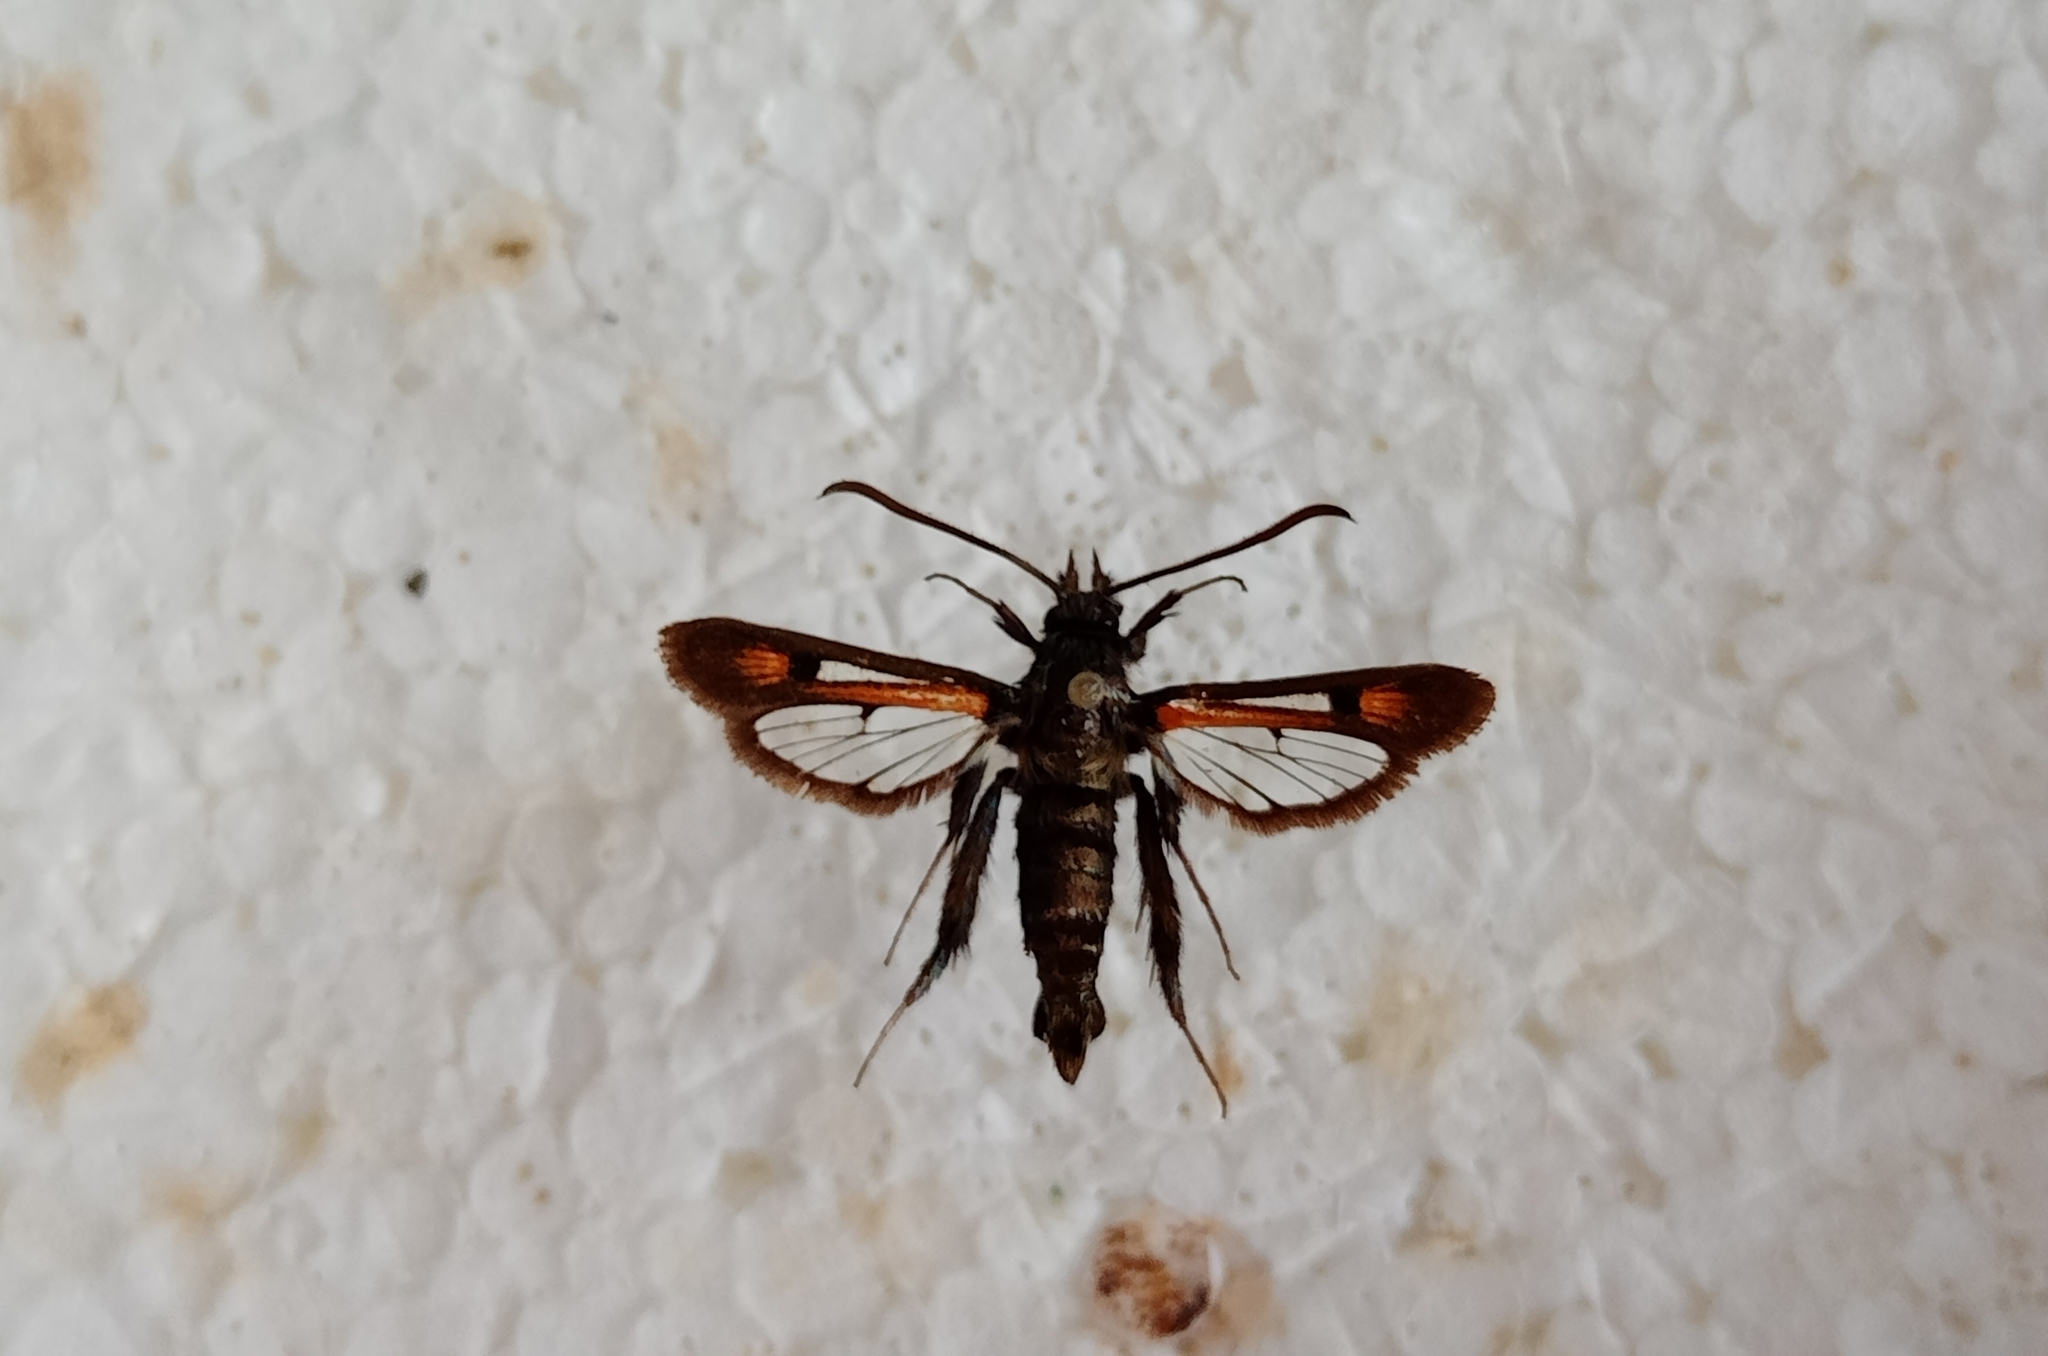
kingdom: Animalia
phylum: Arthropoda
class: Insecta
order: Lepidoptera
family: Sesiidae
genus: Pyropteron
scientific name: Pyropteron chrysidiforme
